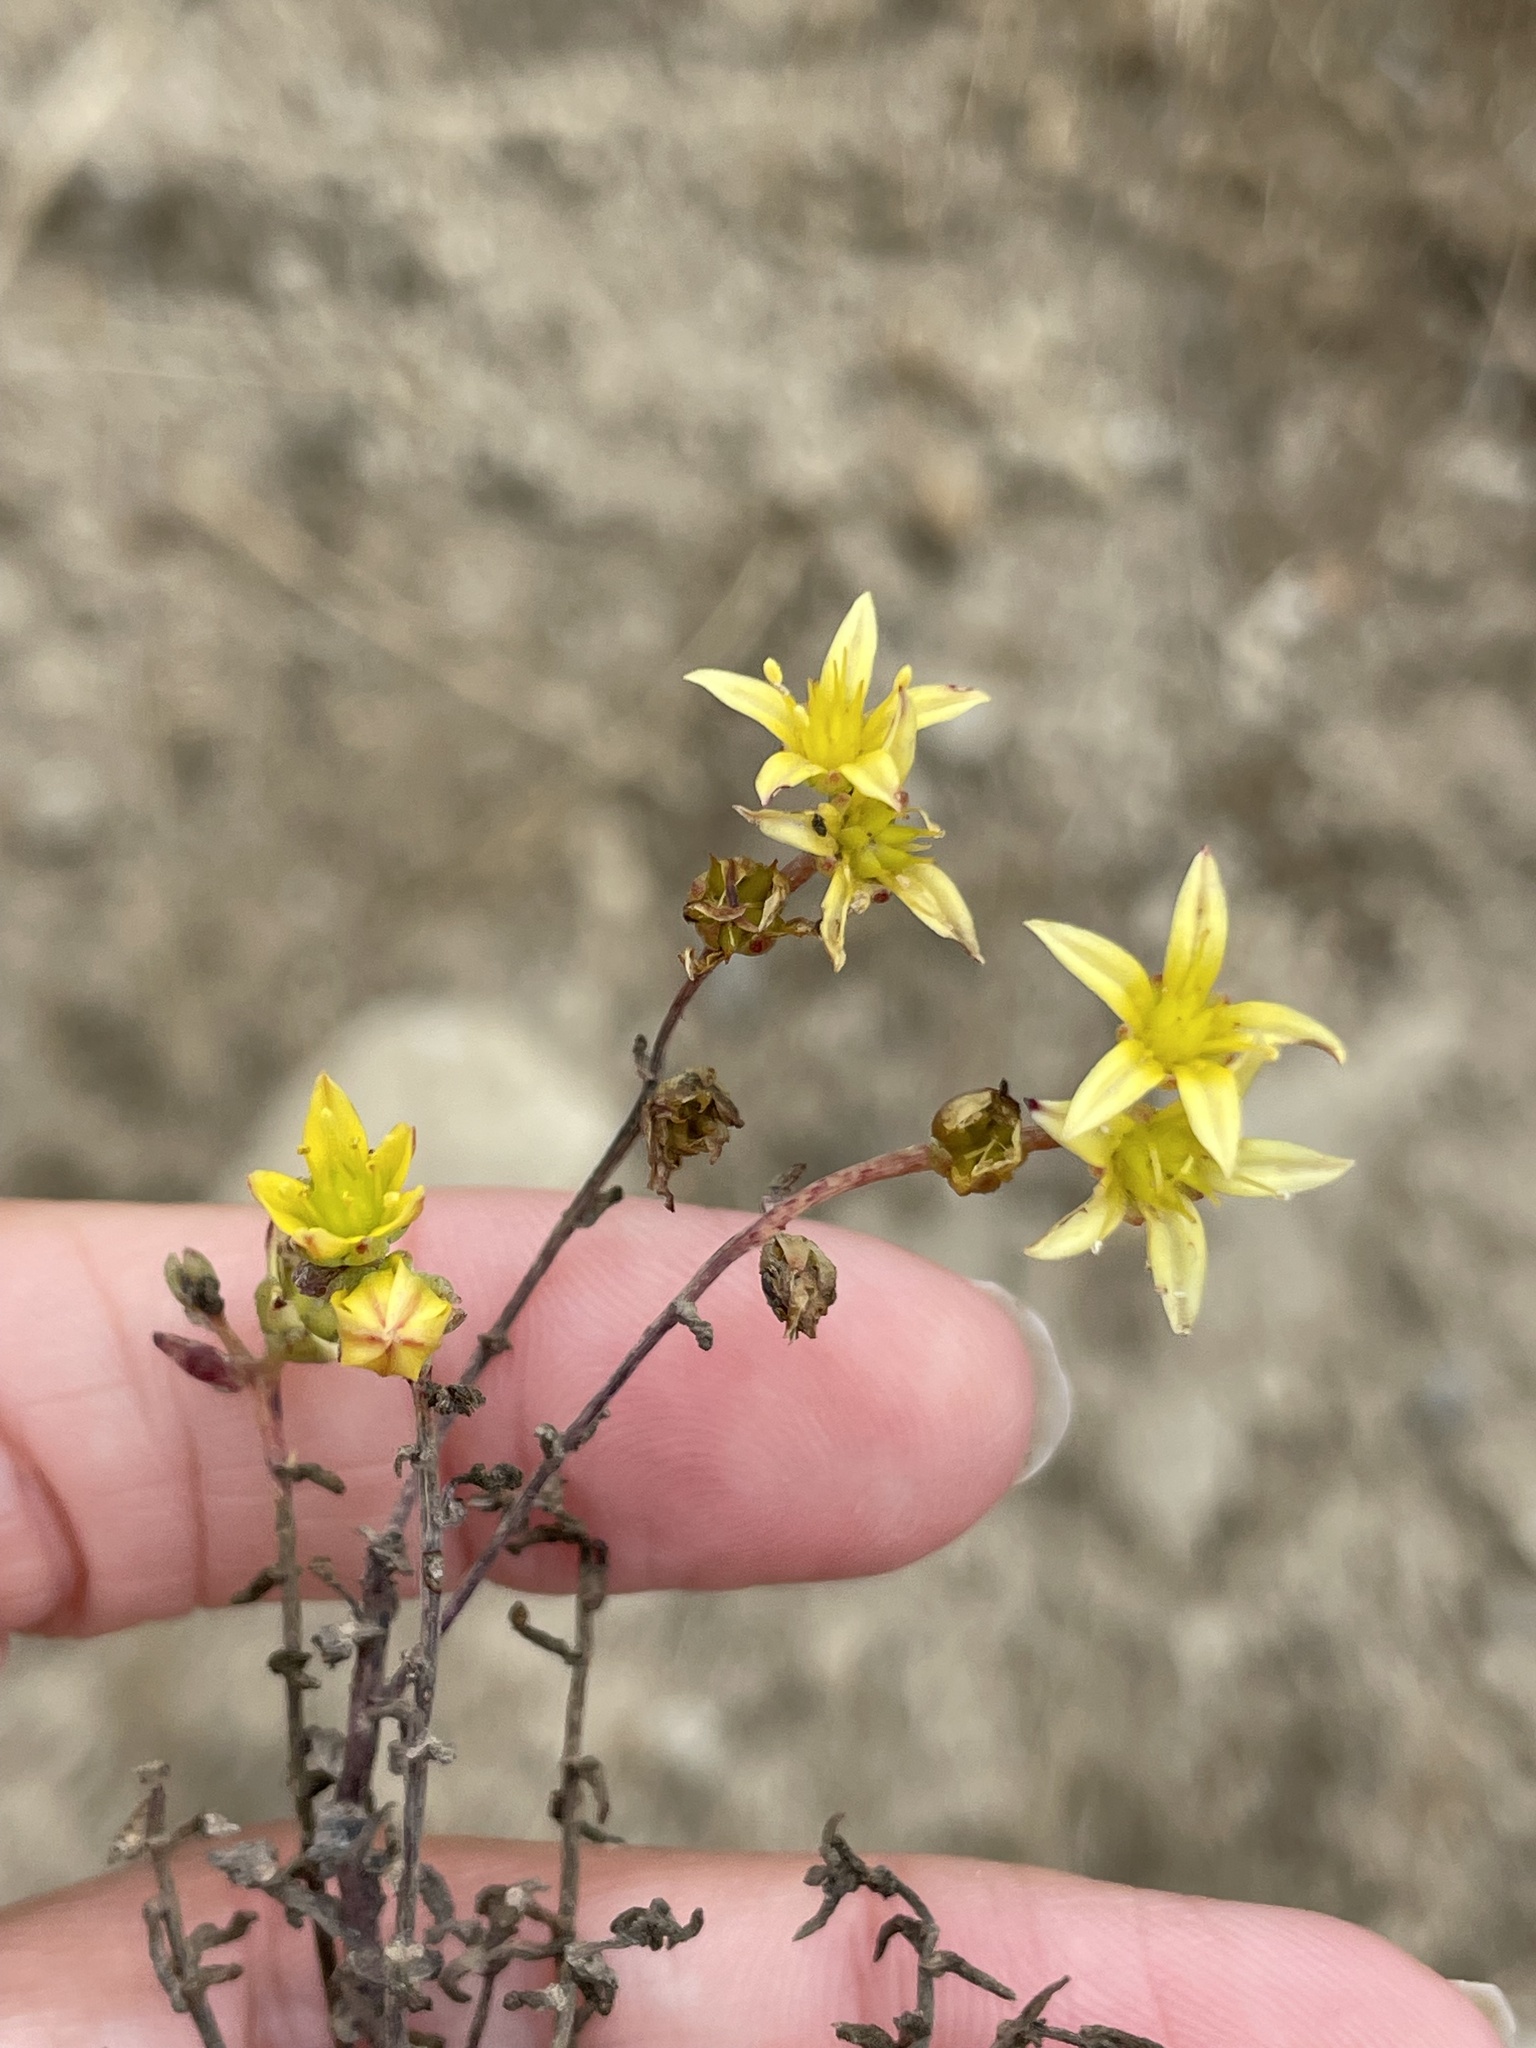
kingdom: Plantae
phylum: Tracheophyta
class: Magnoliopsida
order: Saxifragales
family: Crassulaceae
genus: Dudleya
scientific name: Dudleya variegata
